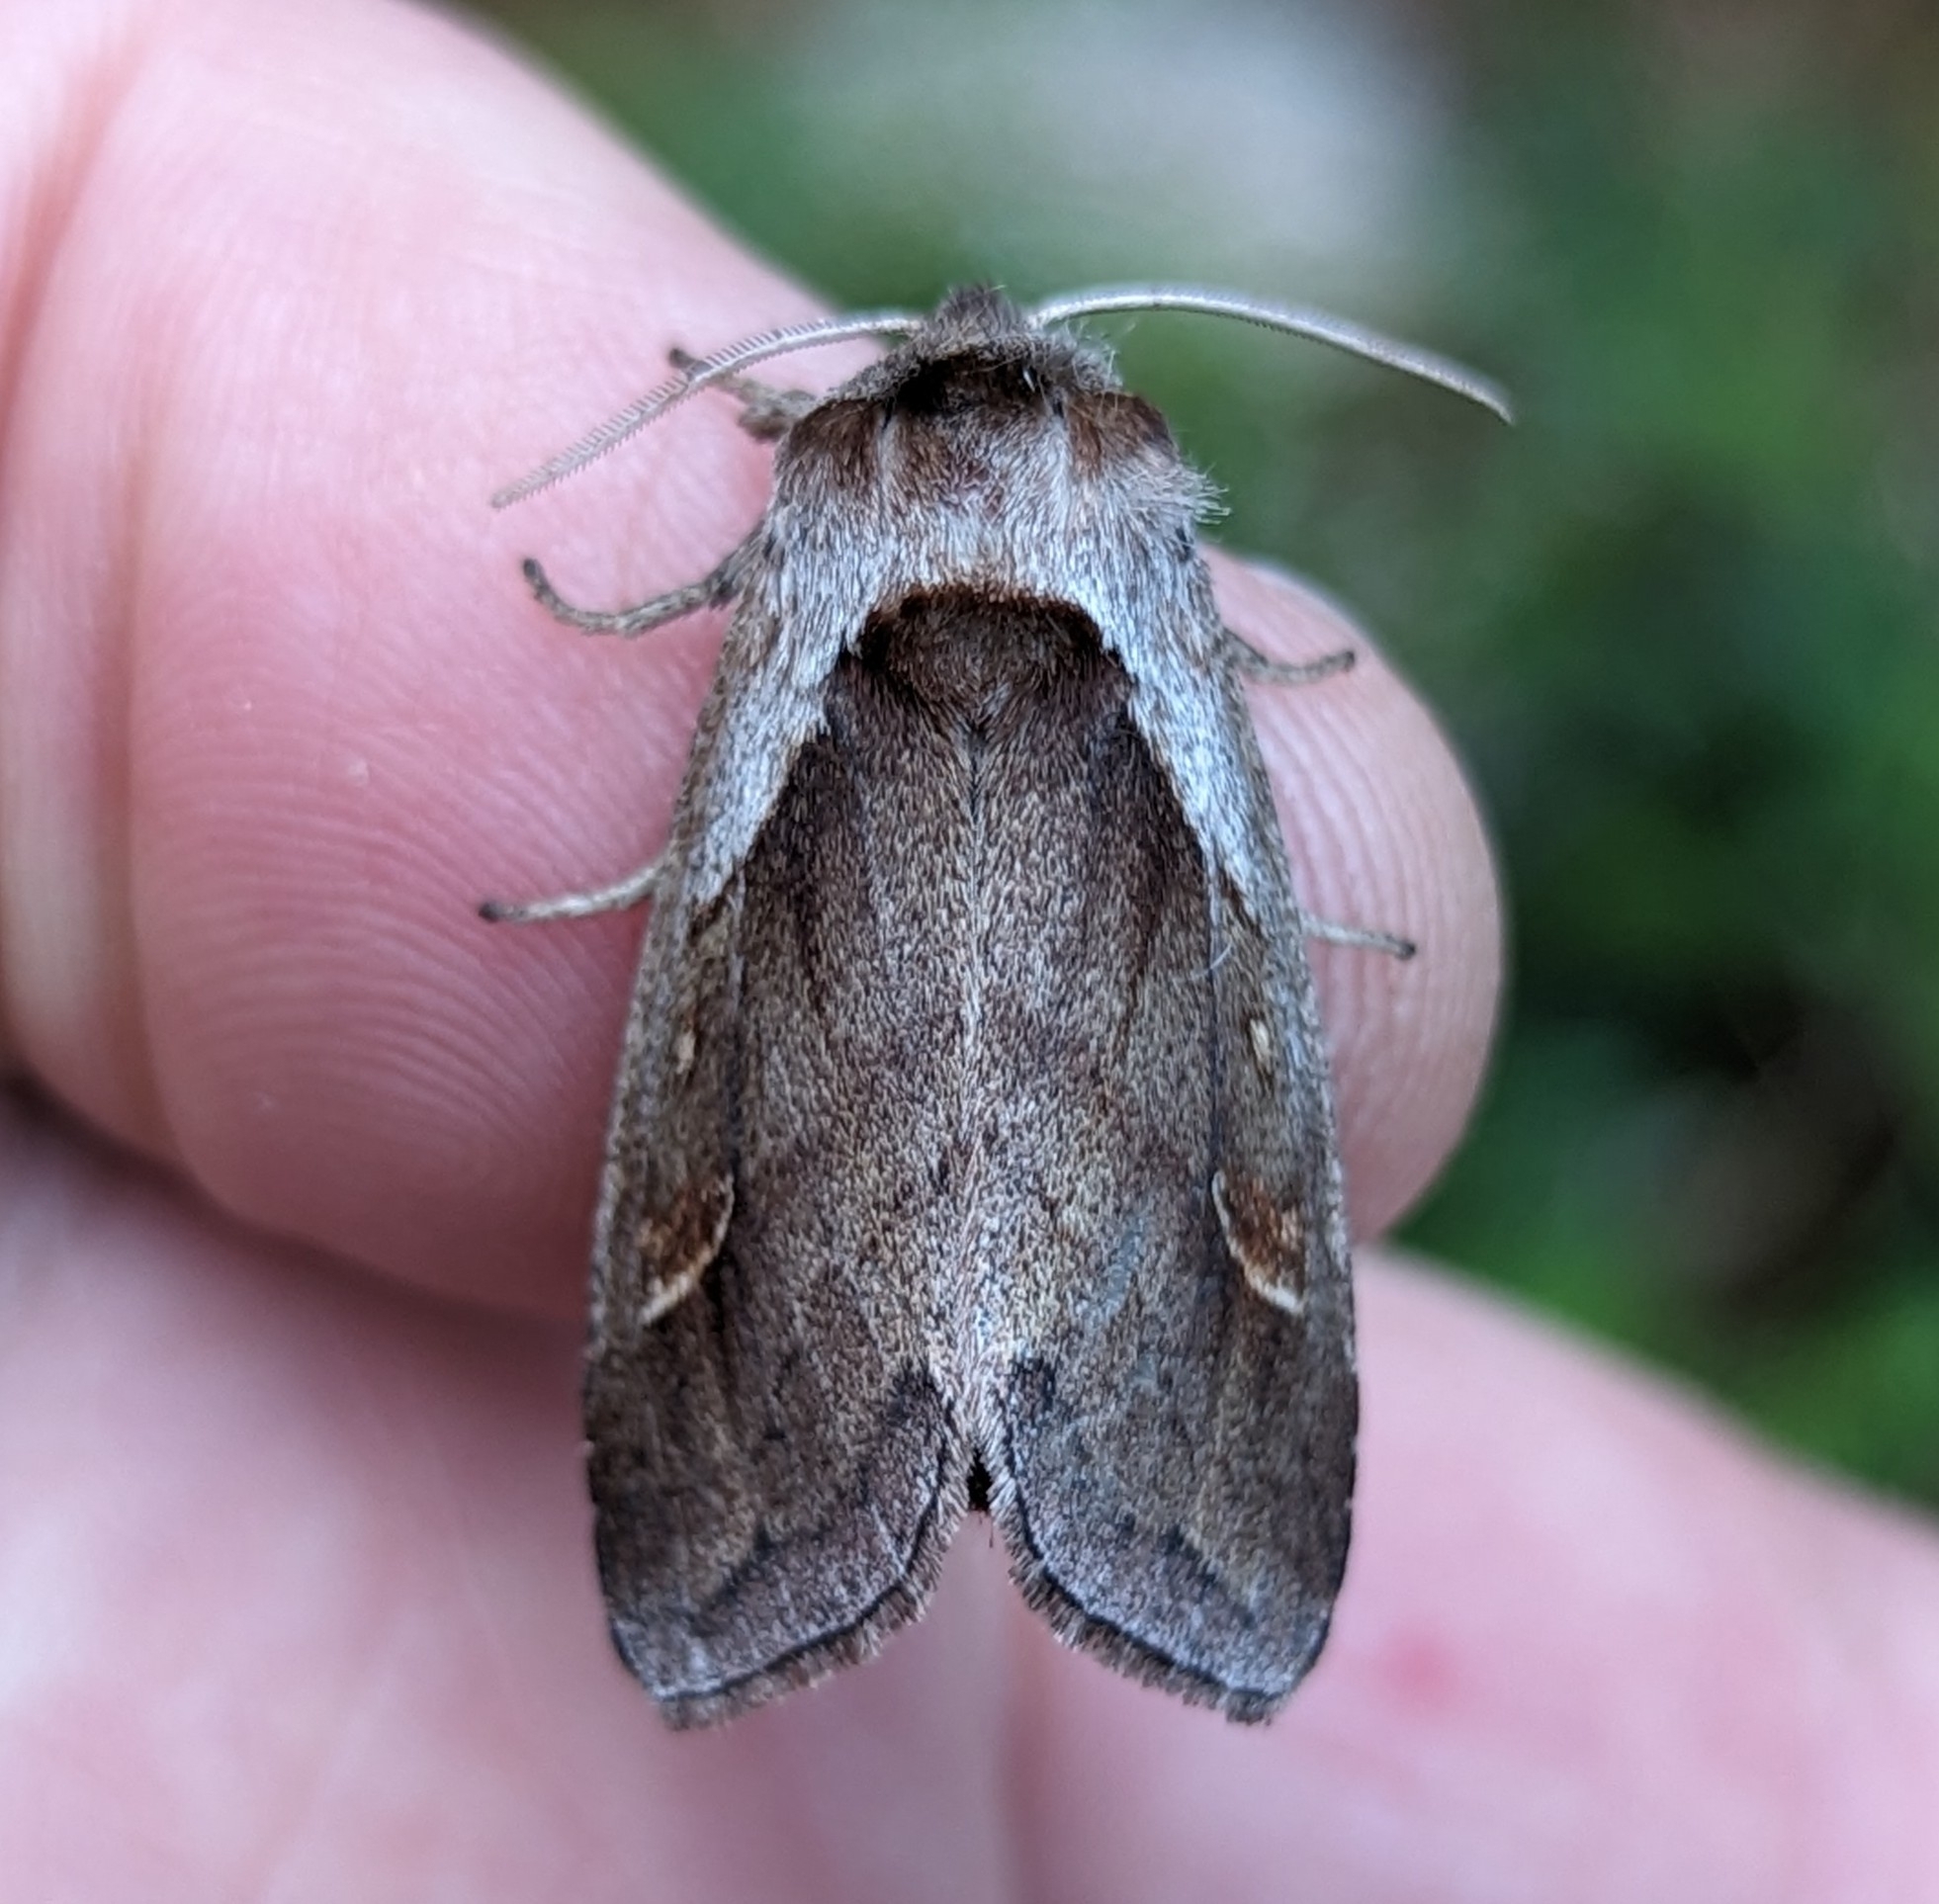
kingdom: Animalia
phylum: Arthropoda
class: Insecta
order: Lepidoptera
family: Noctuidae
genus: Bellura
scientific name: Bellura obliqua
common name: Cattail borer moth
